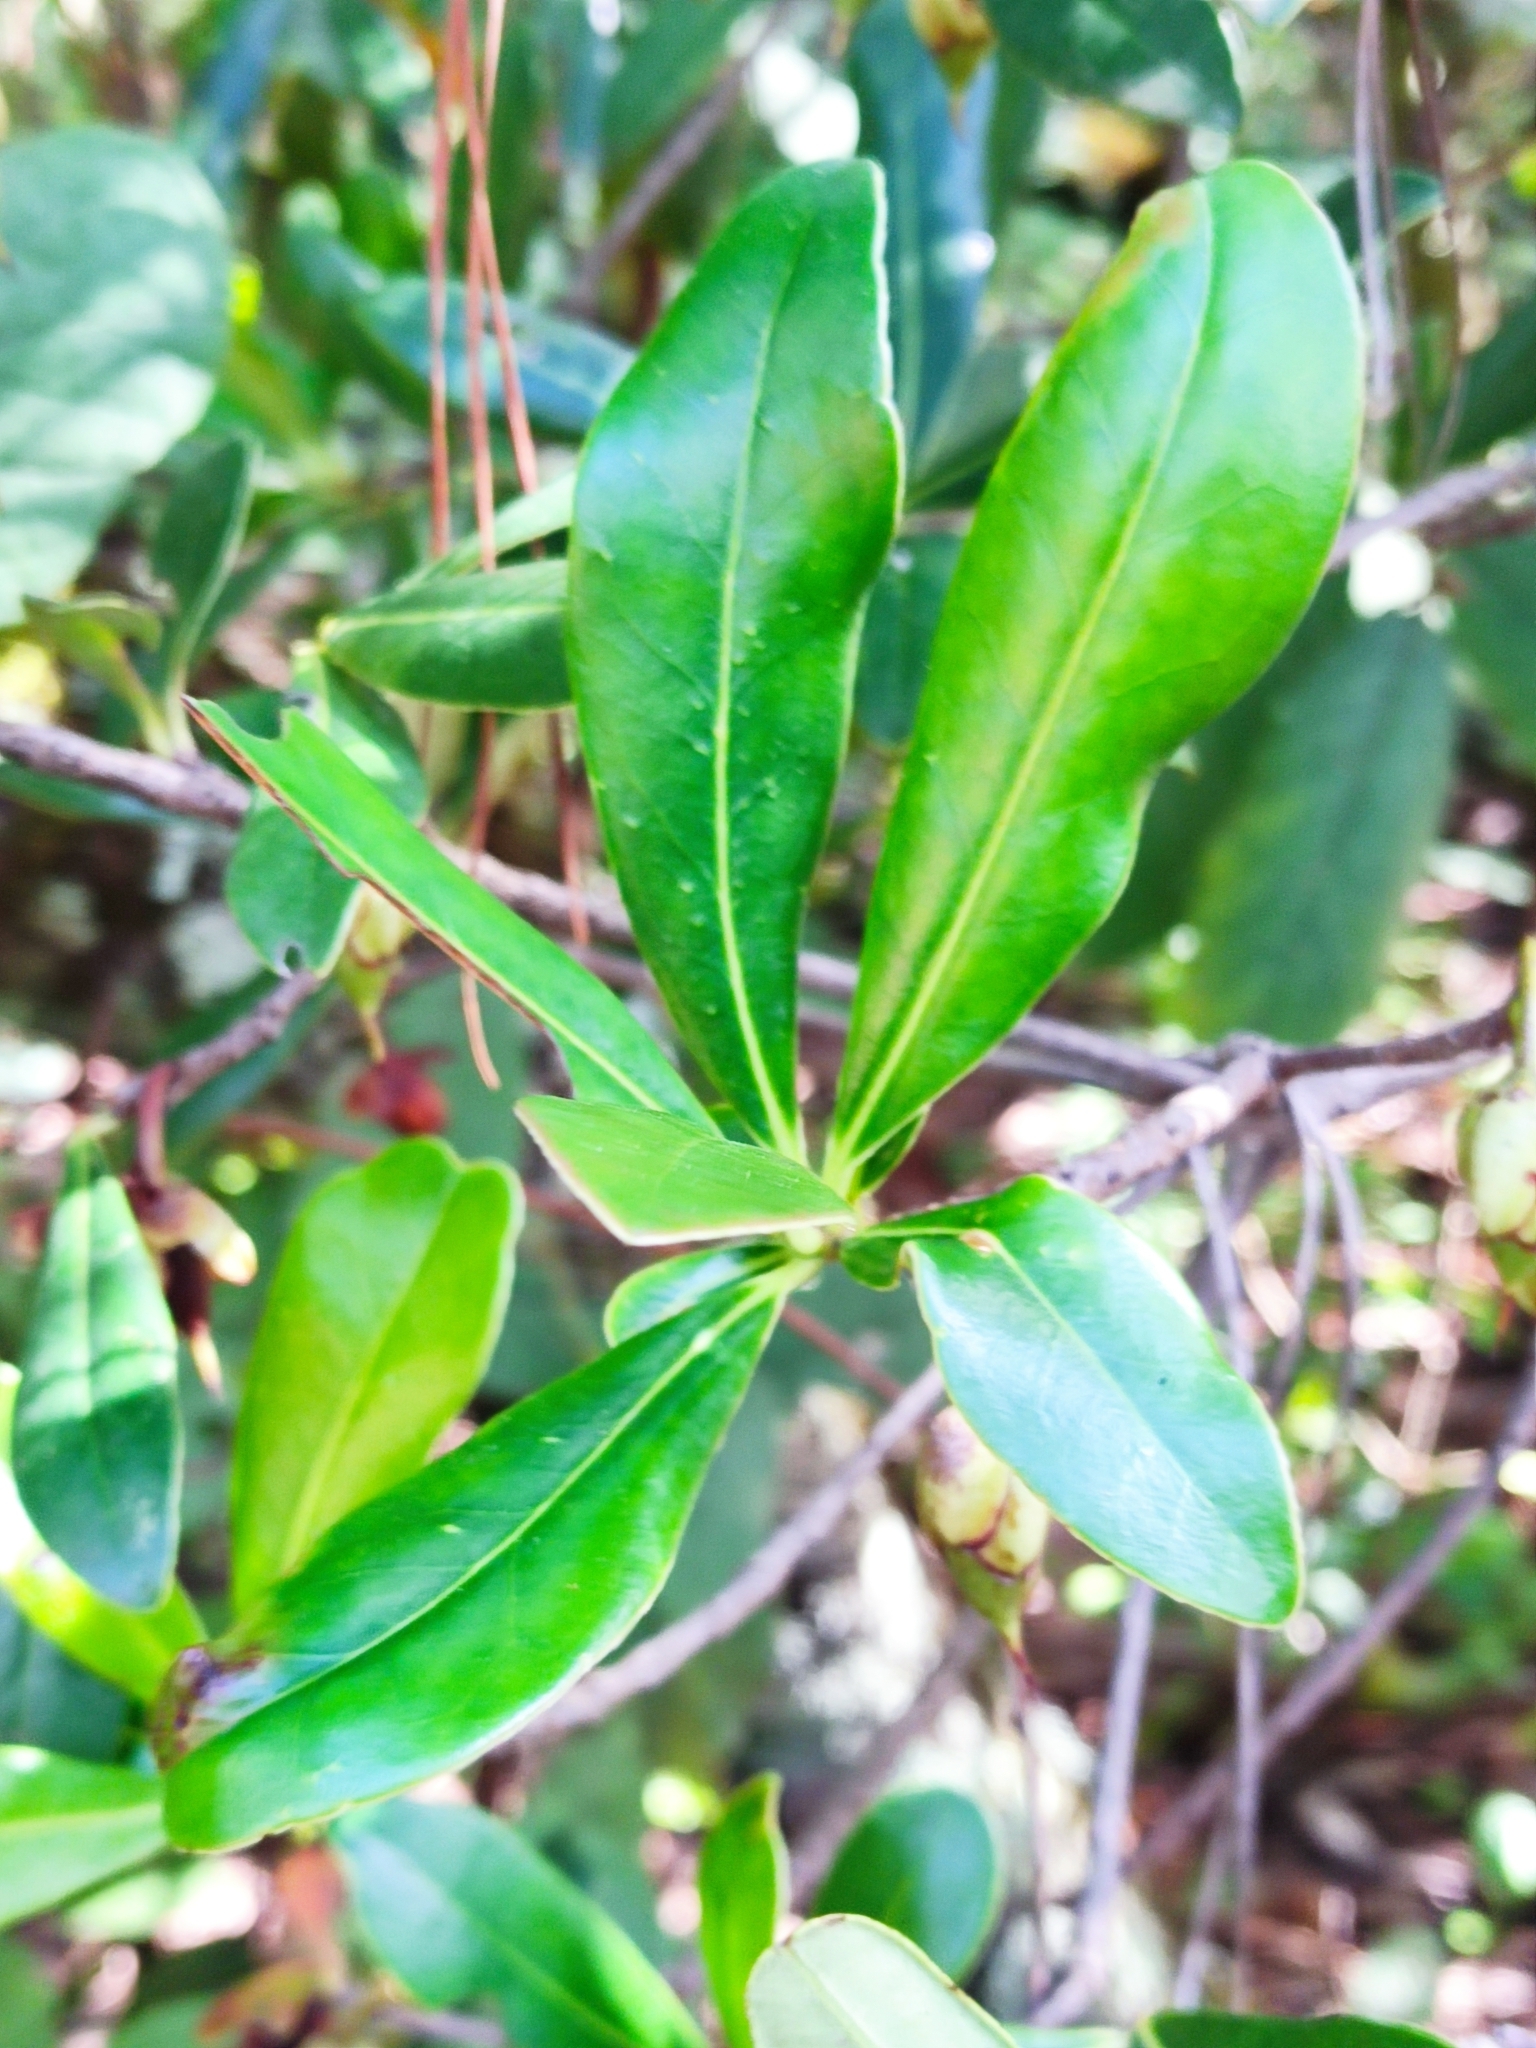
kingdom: Plantae
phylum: Tracheophyta
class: Magnoliopsida
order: Ericales
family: Pentaphylacaceae
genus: Ternstroemia
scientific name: Ternstroemia lineata
